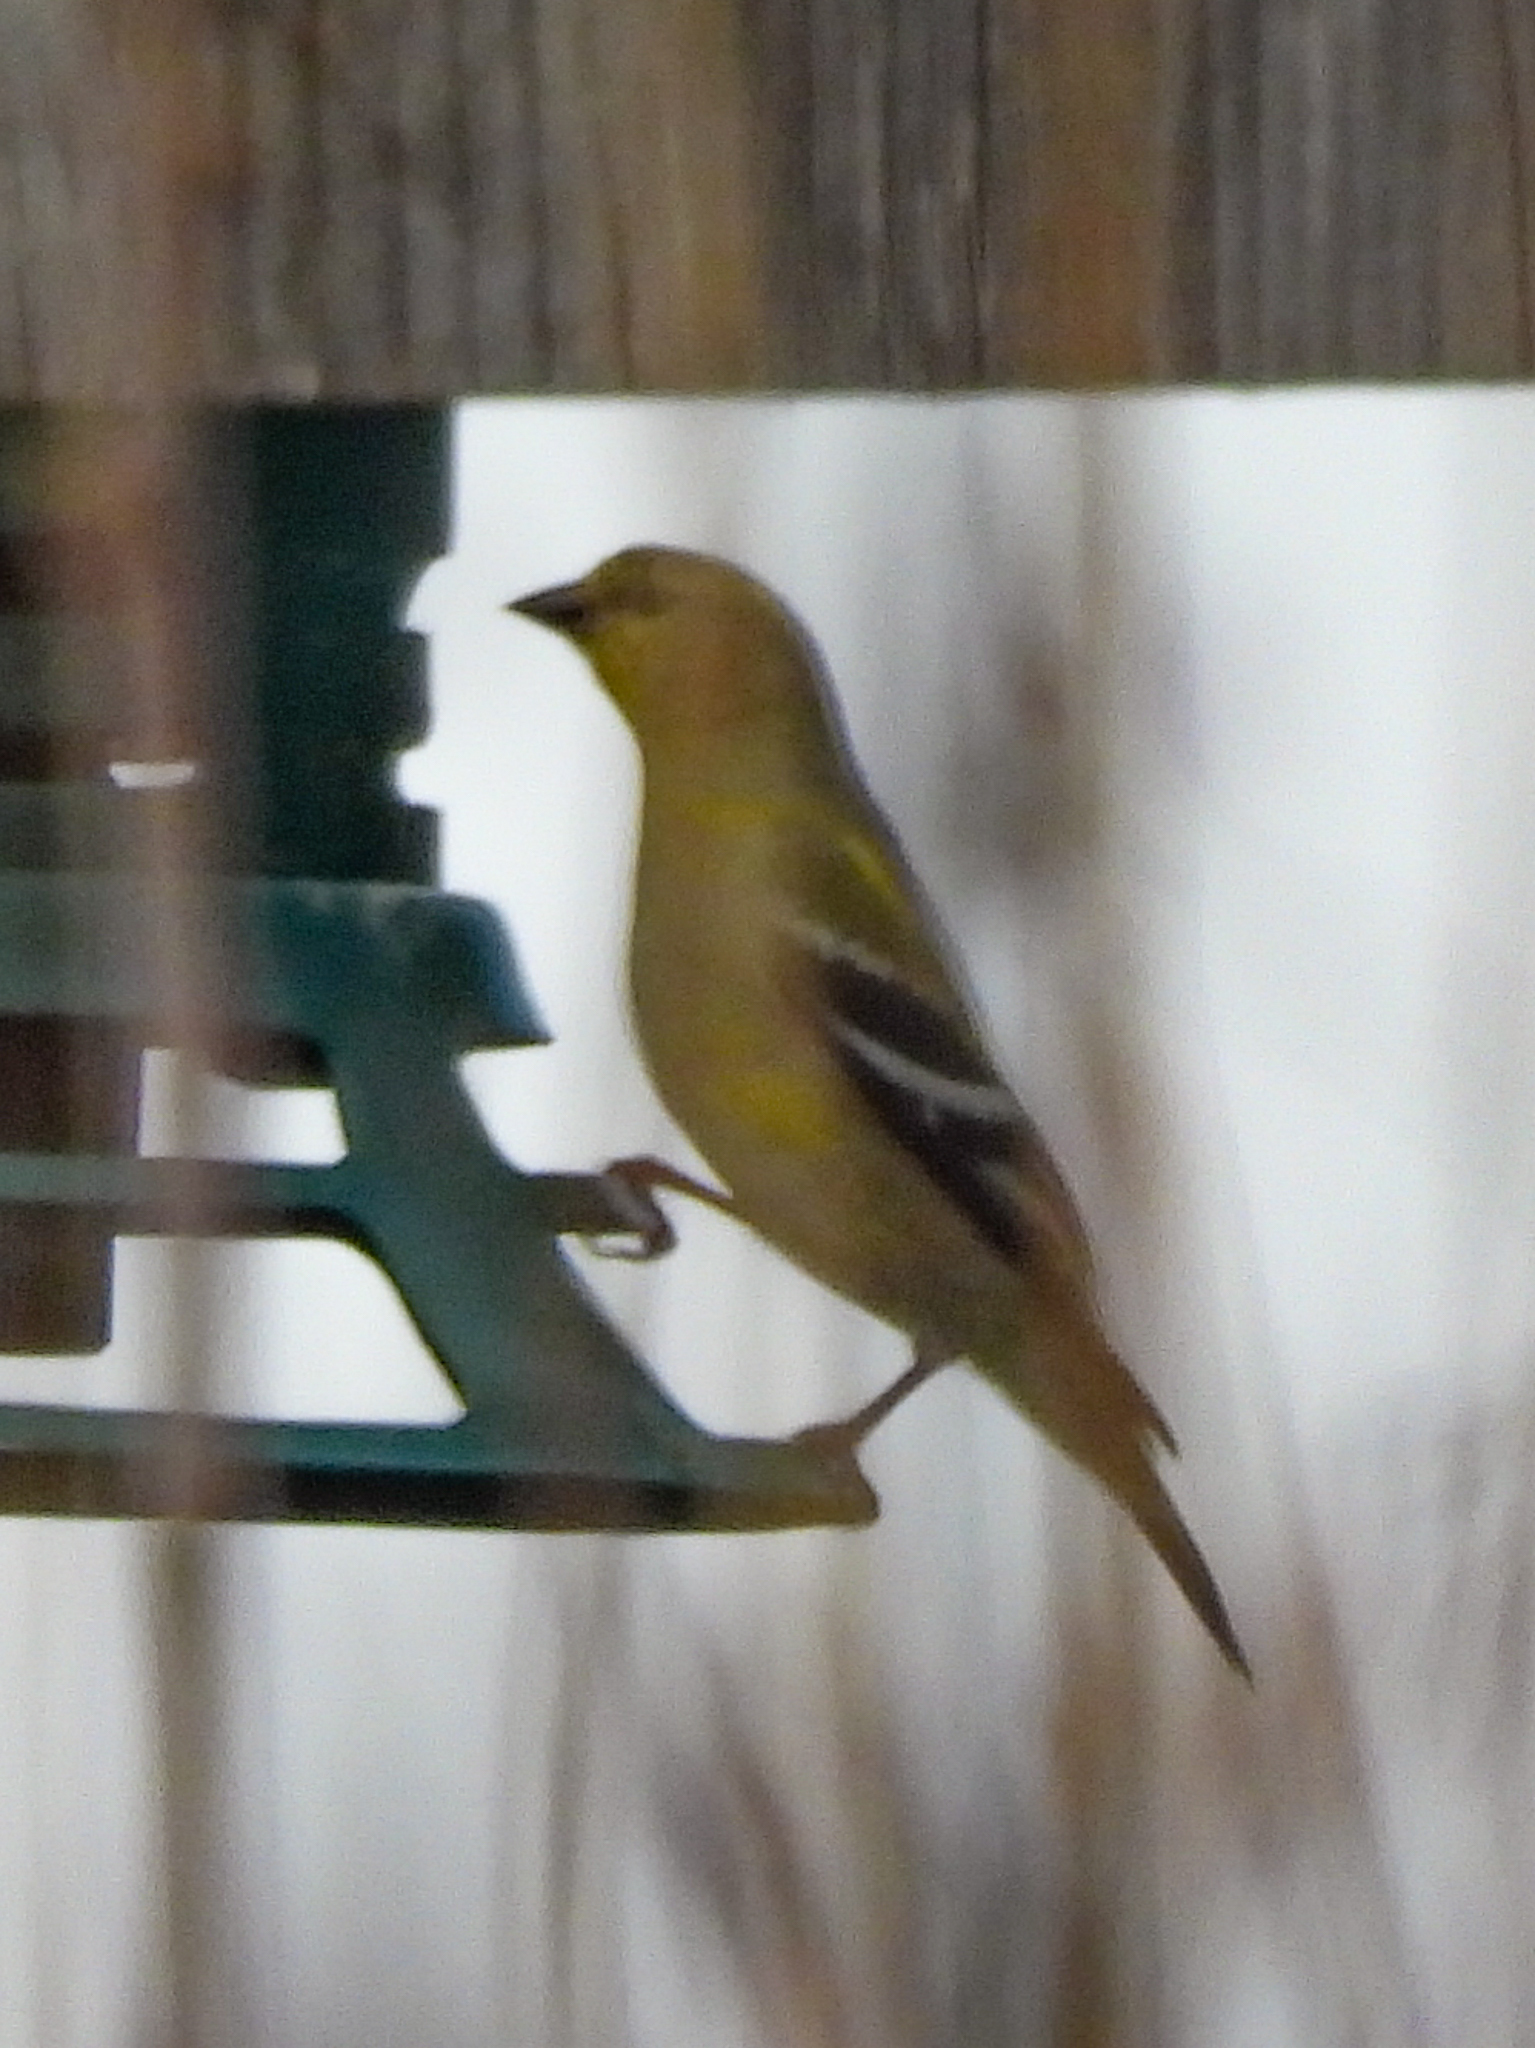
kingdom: Animalia
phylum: Chordata
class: Aves
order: Passeriformes
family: Fringillidae
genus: Spinus
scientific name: Spinus tristis
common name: American goldfinch
